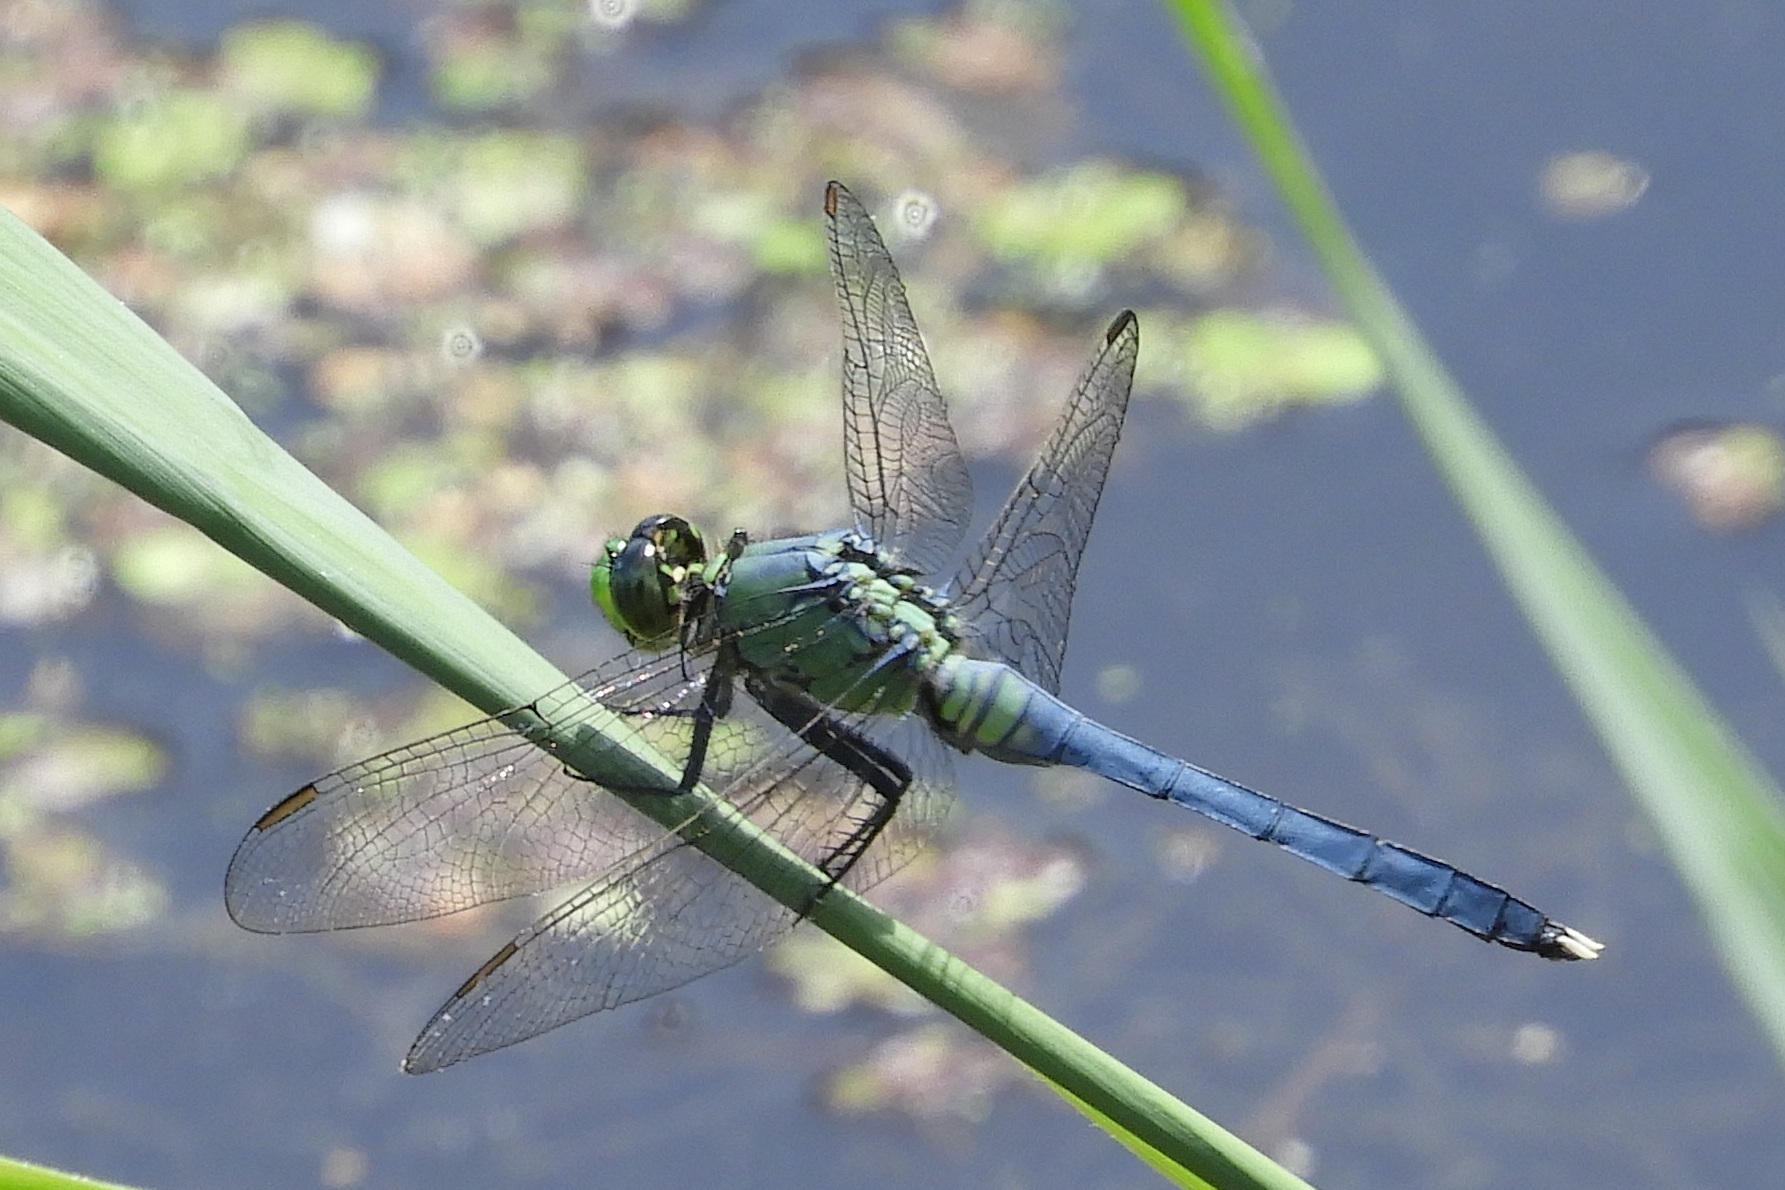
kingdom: Animalia
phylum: Arthropoda
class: Insecta
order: Odonata
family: Libellulidae
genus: Erythemis
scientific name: Erythemis simplicicollis
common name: Eastern pondhawk
